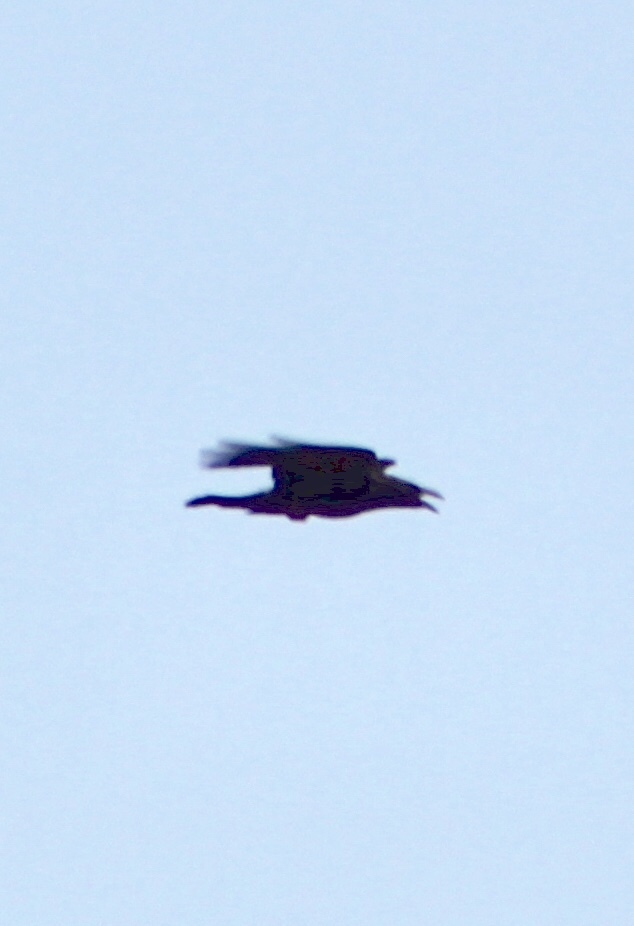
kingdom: Animalia
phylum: Chordata
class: Aves
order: Passeriformes
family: Corvidae
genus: Corvus
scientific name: Corvus cryptoleucus
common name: Chihuahuan raven
